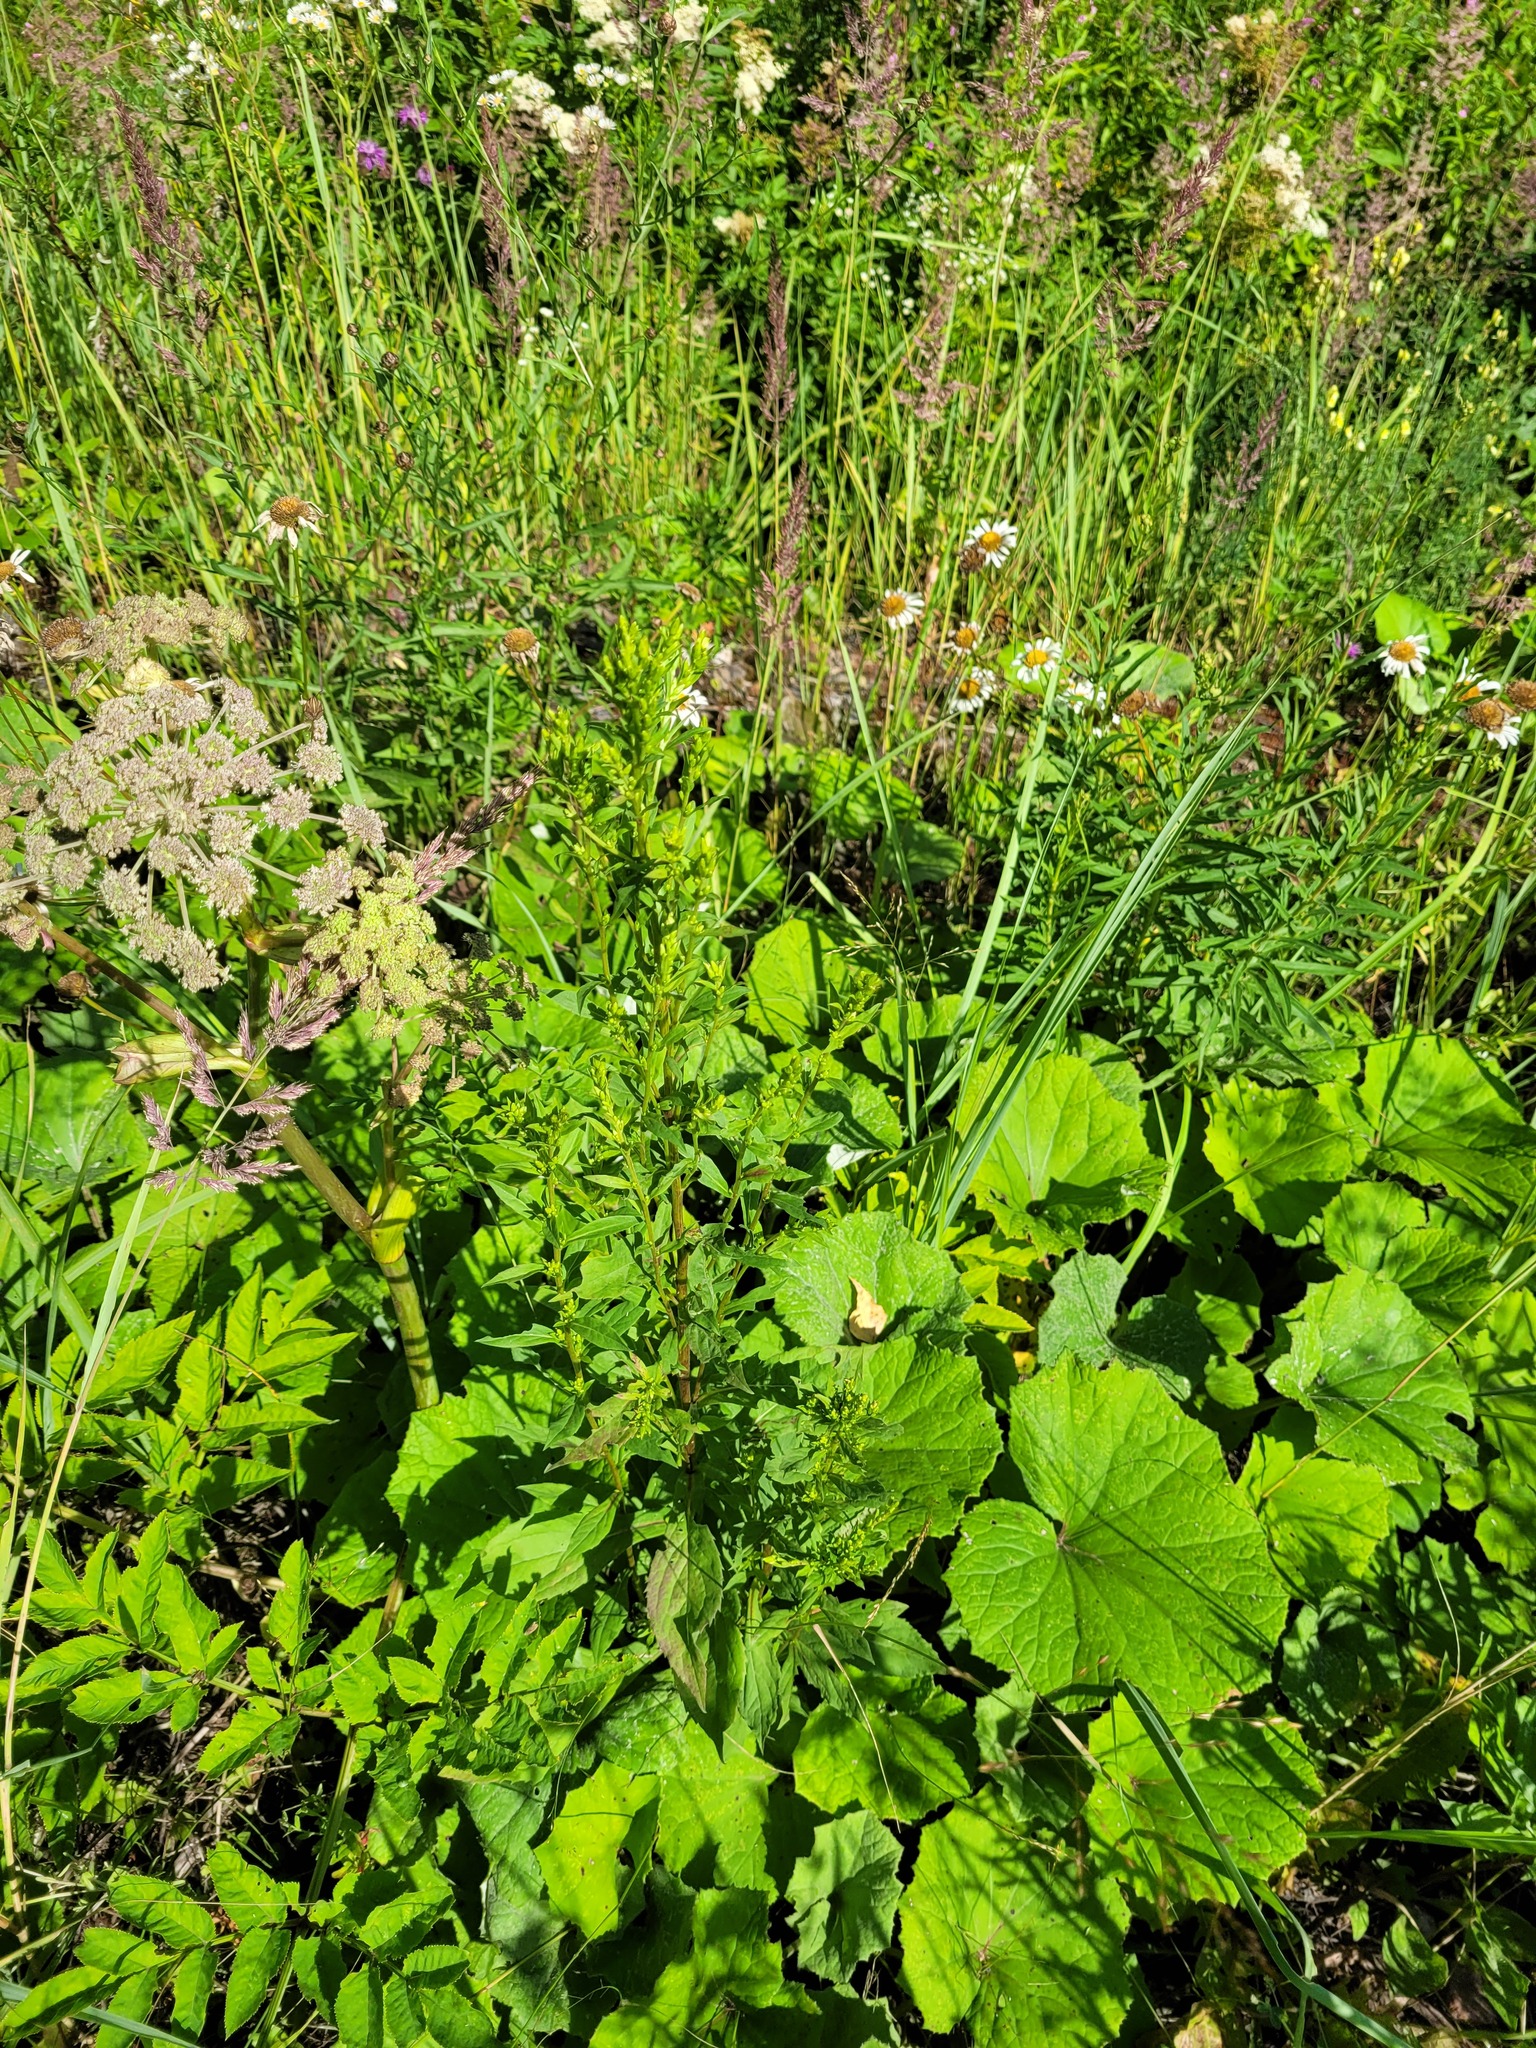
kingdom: Plantae
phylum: Tracheophyta
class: Magnoliopsida
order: Asterales
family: Asteraceae
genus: Solidago
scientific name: Solidago virgaurea
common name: Goldenrod
